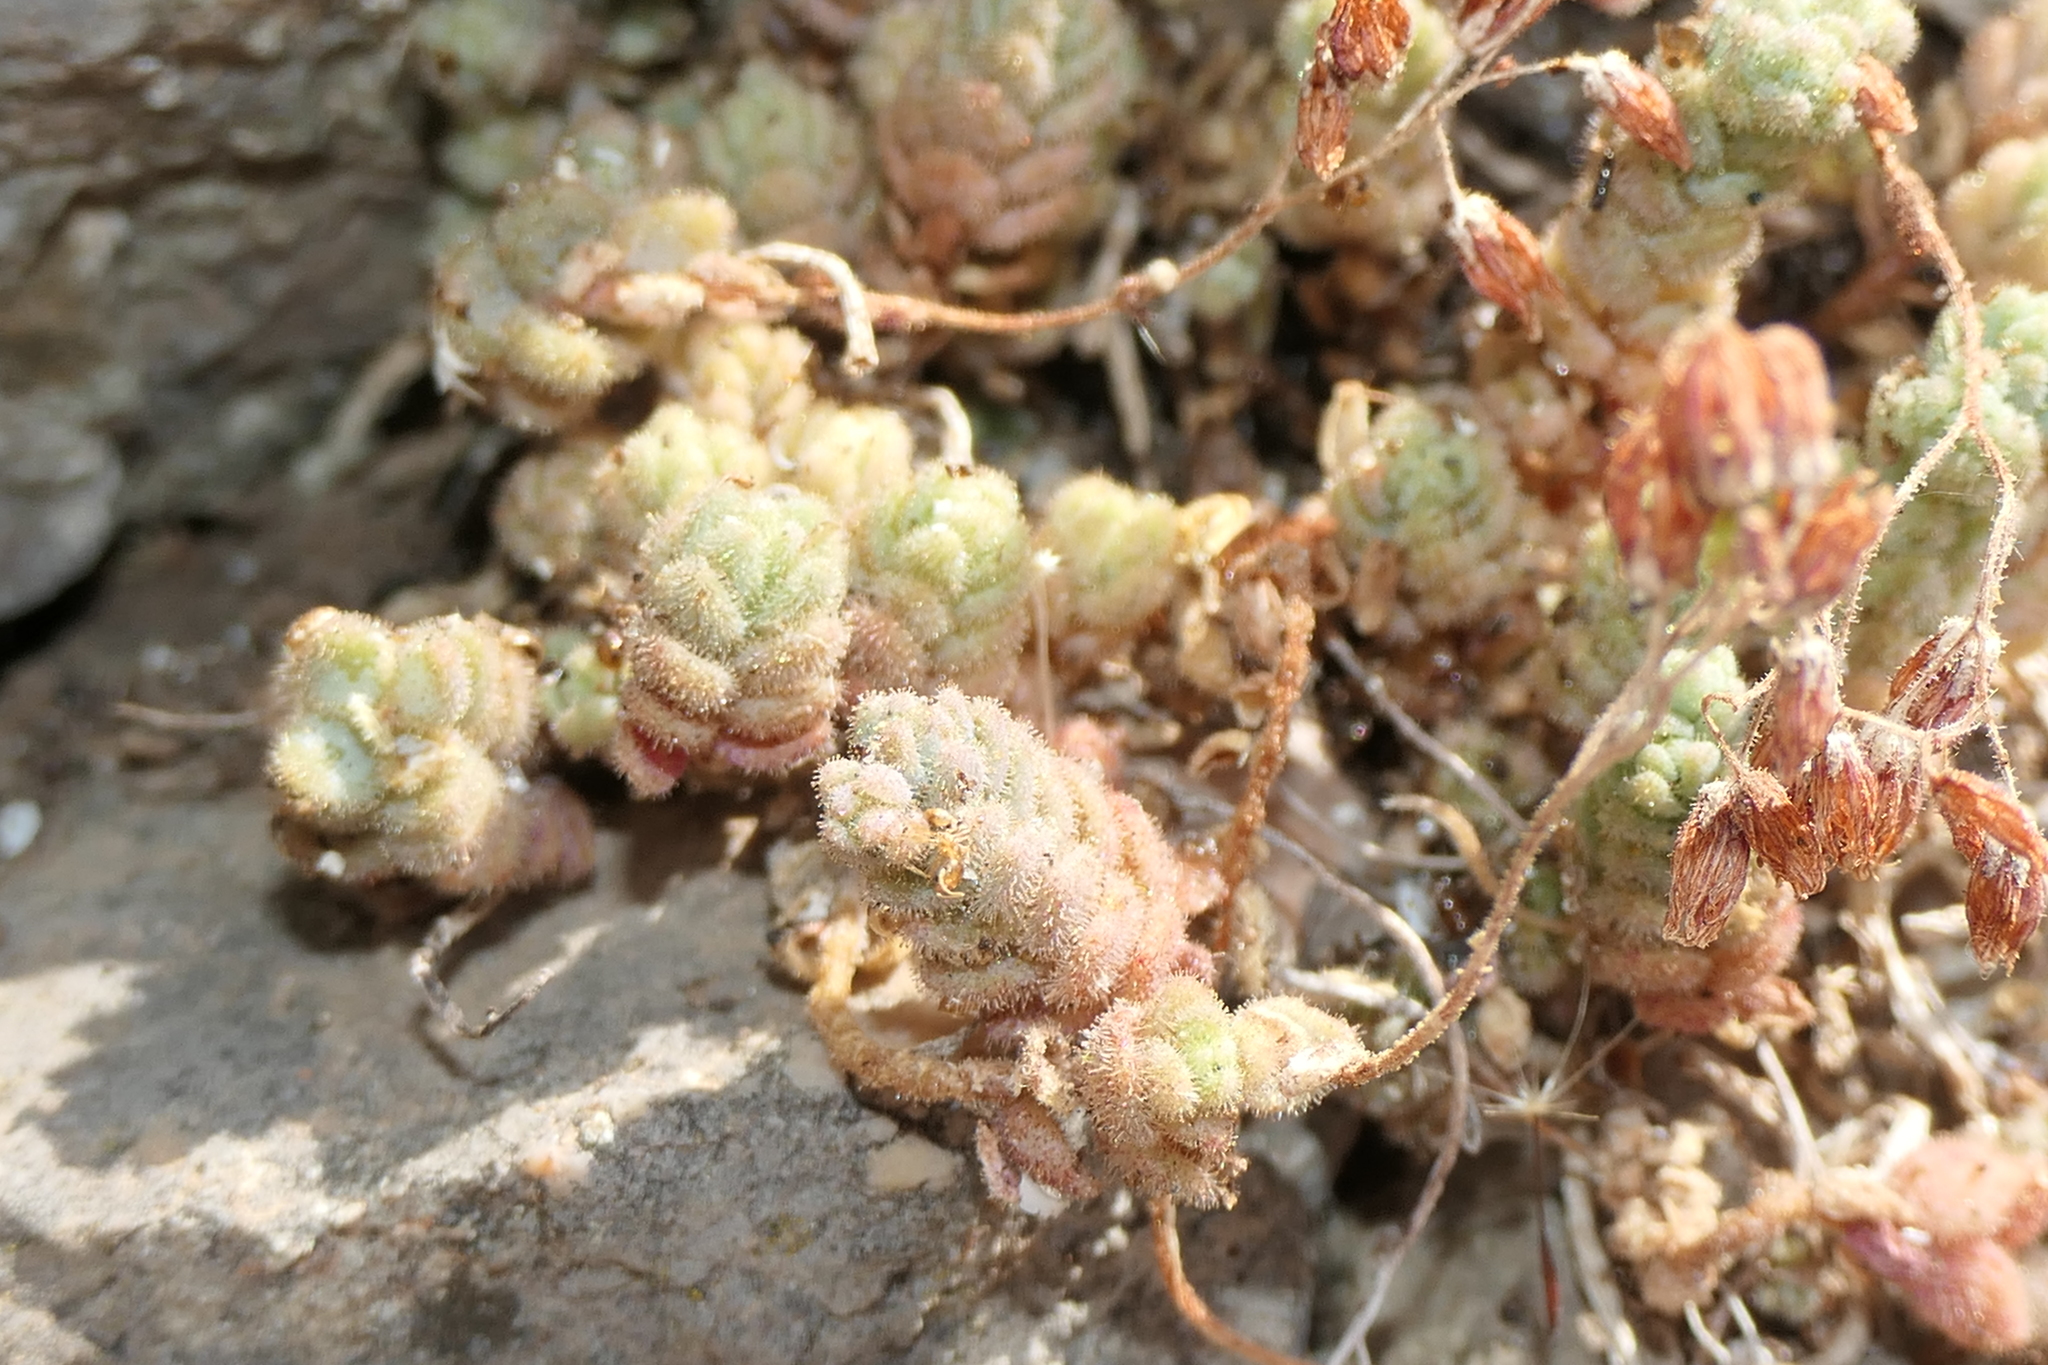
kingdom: Plantae
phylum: Tracheophyta
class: Magnoliopsida
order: Saxifragales
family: Crassulaceae
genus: Sedum
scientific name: Sedum dasyphyllum
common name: Thick-leaf stonecrop
